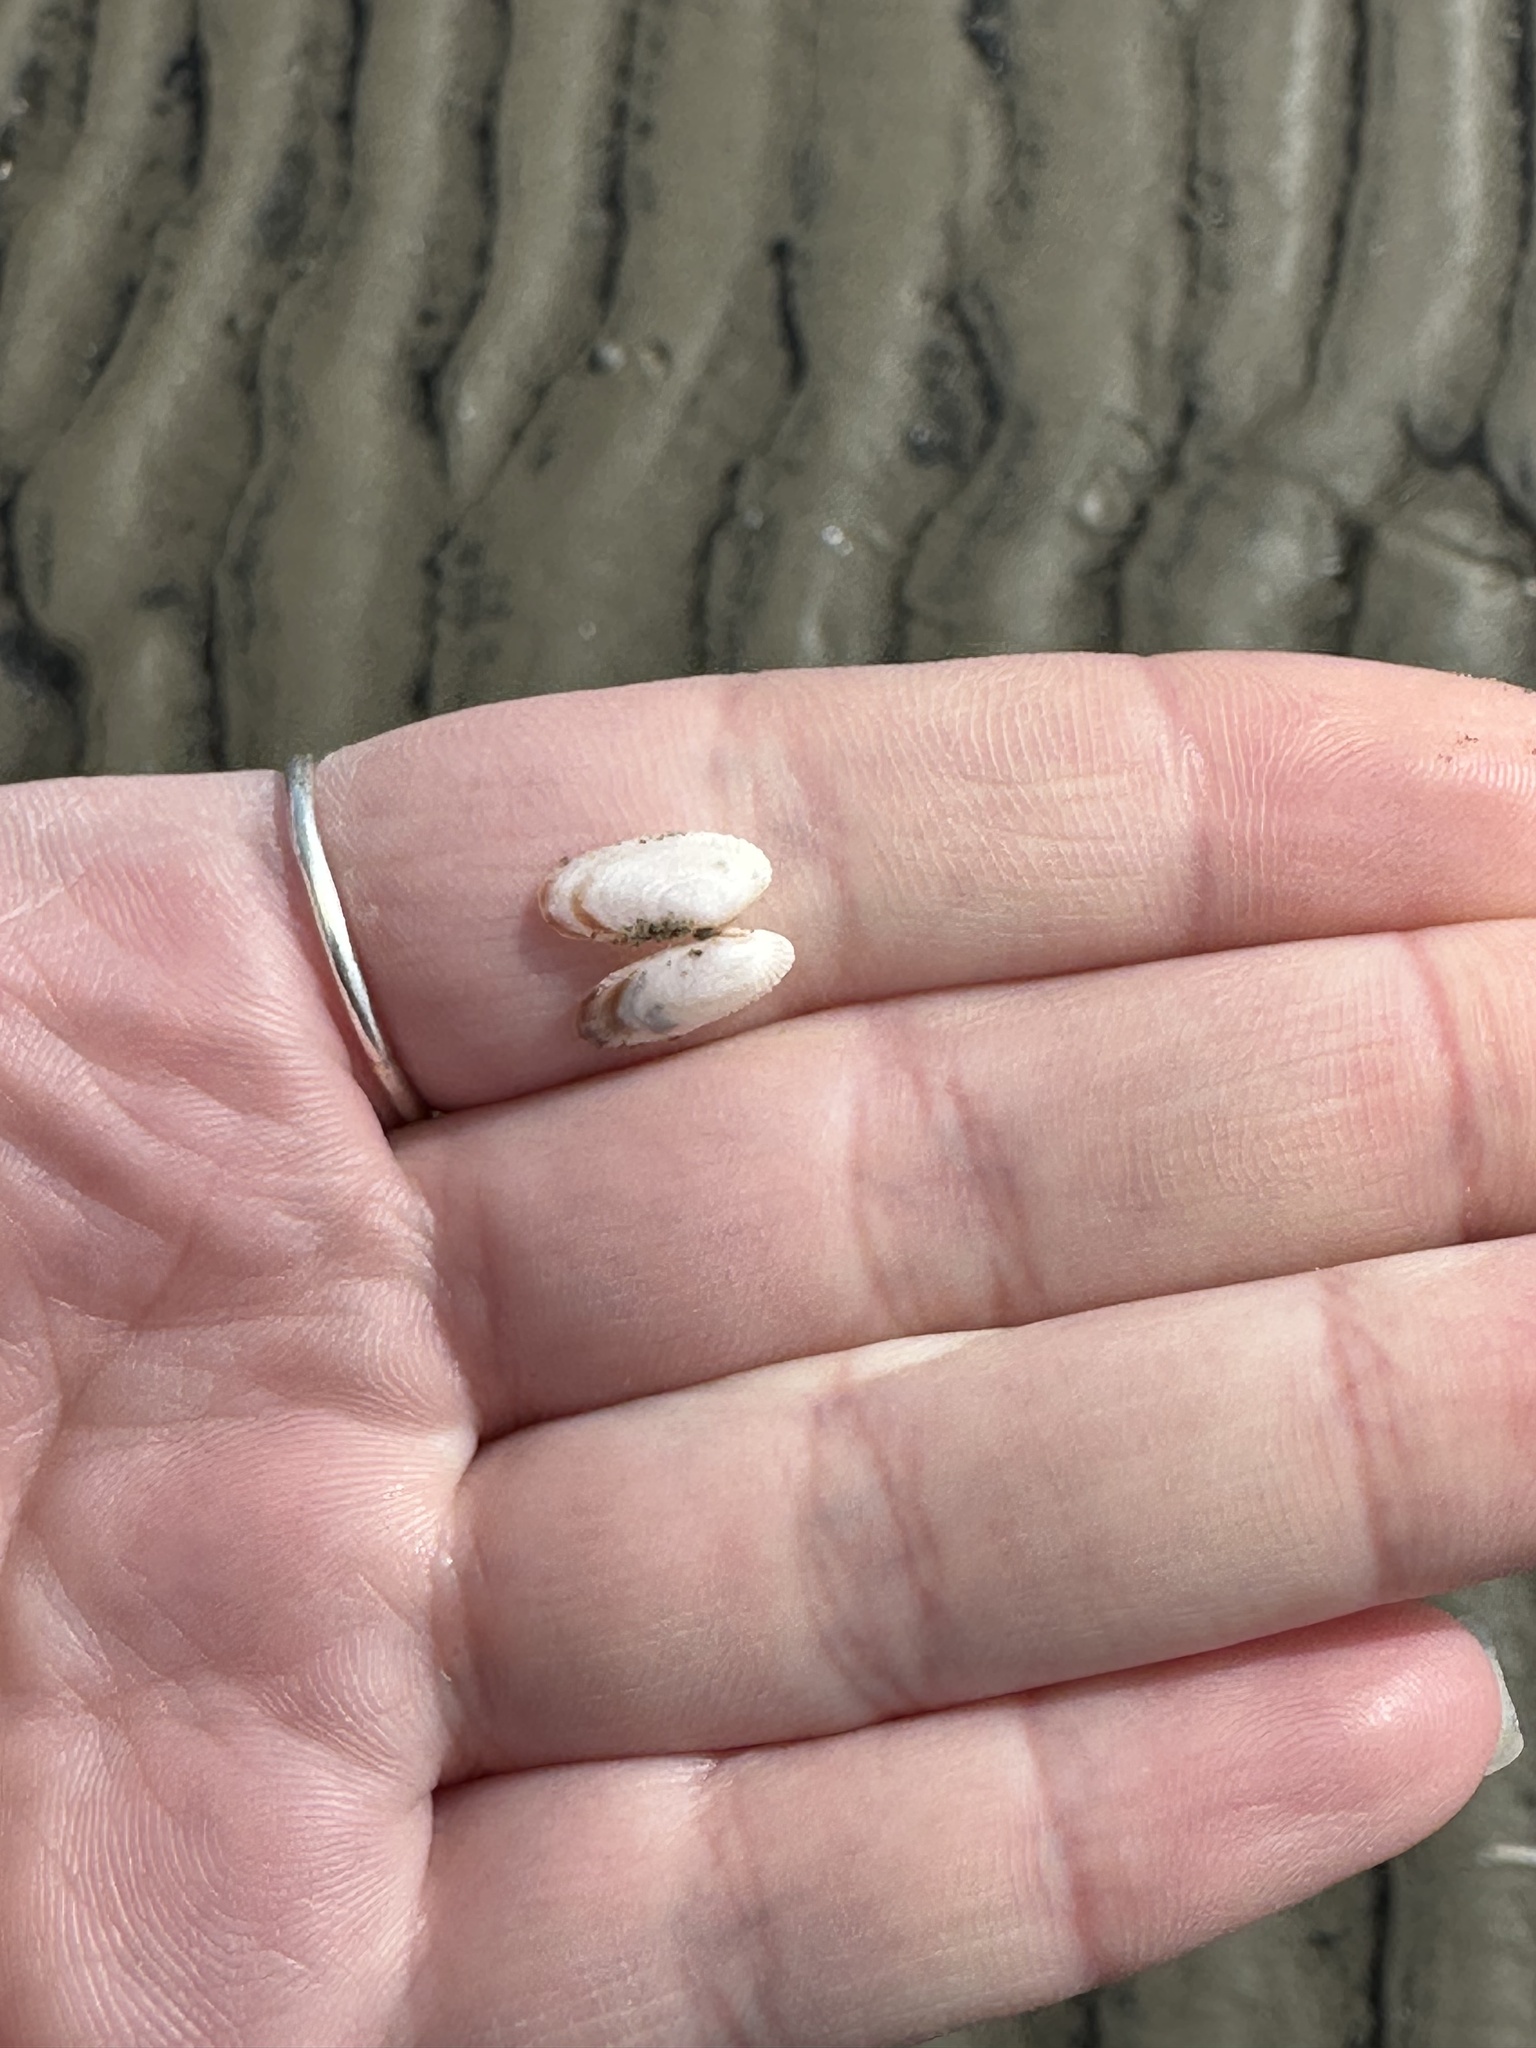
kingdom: Animalia
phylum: Mollusca
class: Bivalvia
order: Venerida
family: Veneridae
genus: Petricolaria
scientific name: Petricolaria pholadiformis
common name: American piddock
